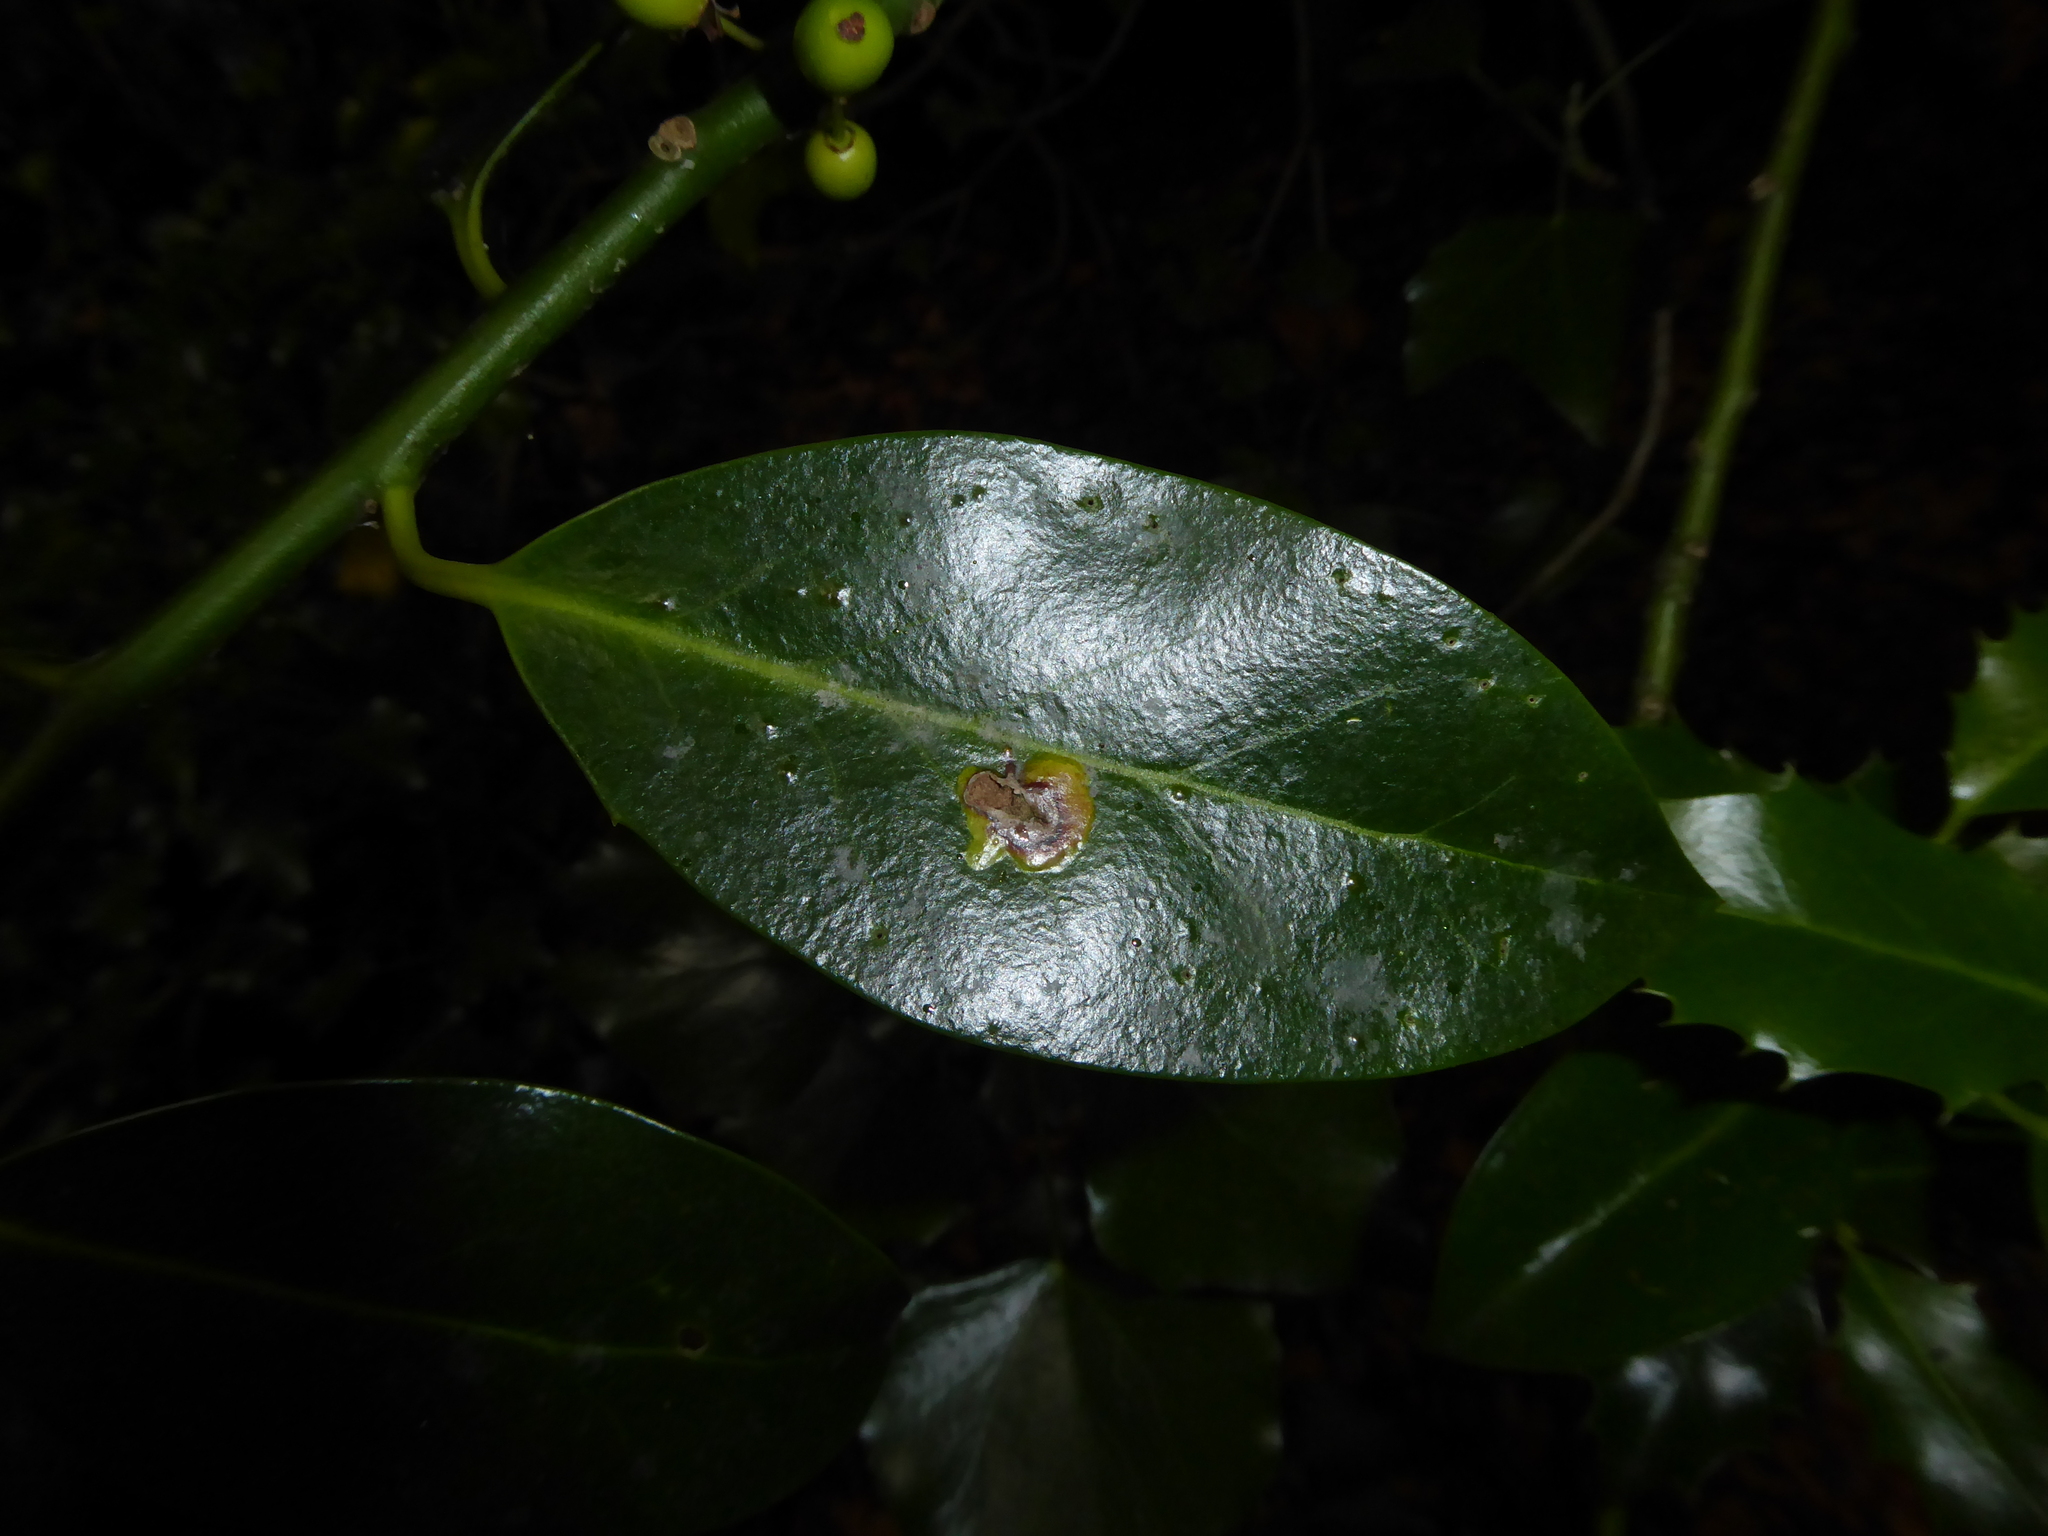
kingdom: Animalia
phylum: Arthropoda
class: Insecta
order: Diptera
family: Agromyzidae
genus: Phytomyza
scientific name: Phytomyza ilicis
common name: Holly leafminer
